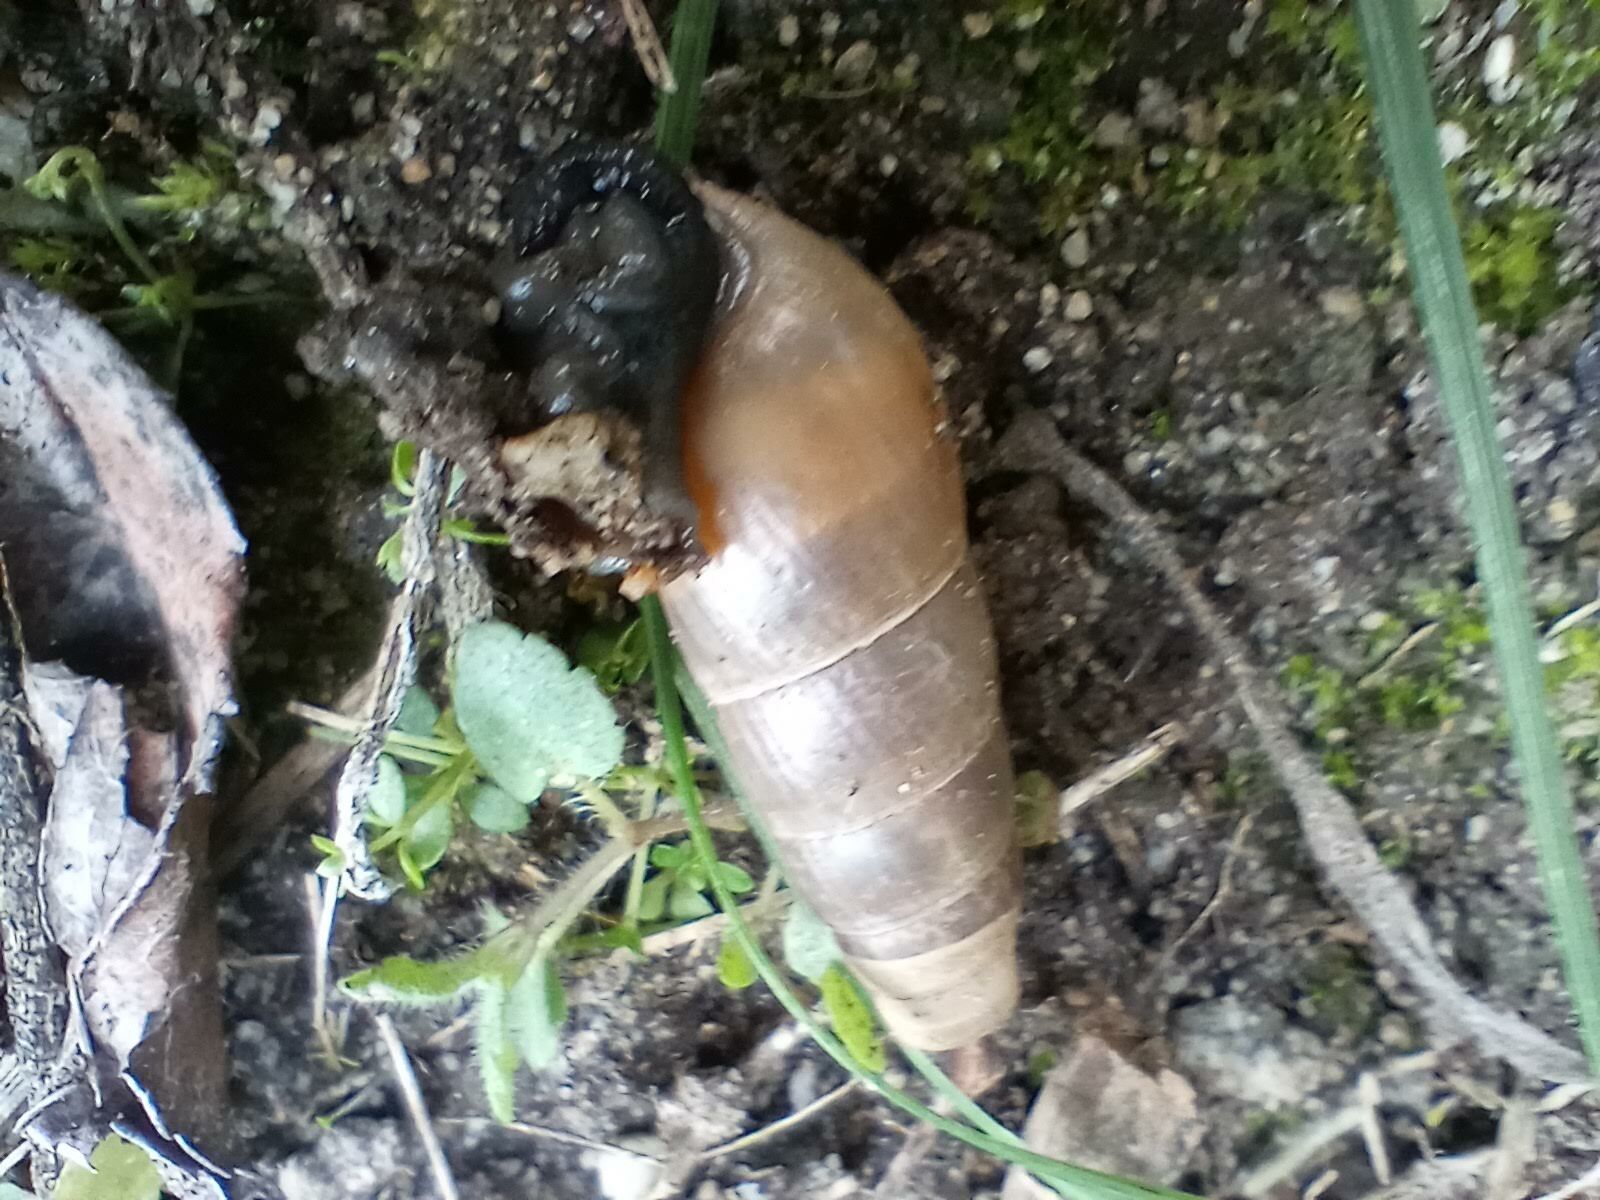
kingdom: Animalia
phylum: Mollusca
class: Gastropoda
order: Stylommatophora
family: Achatinidae
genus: Rumina
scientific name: Rumina decollata
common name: Decollate snail
